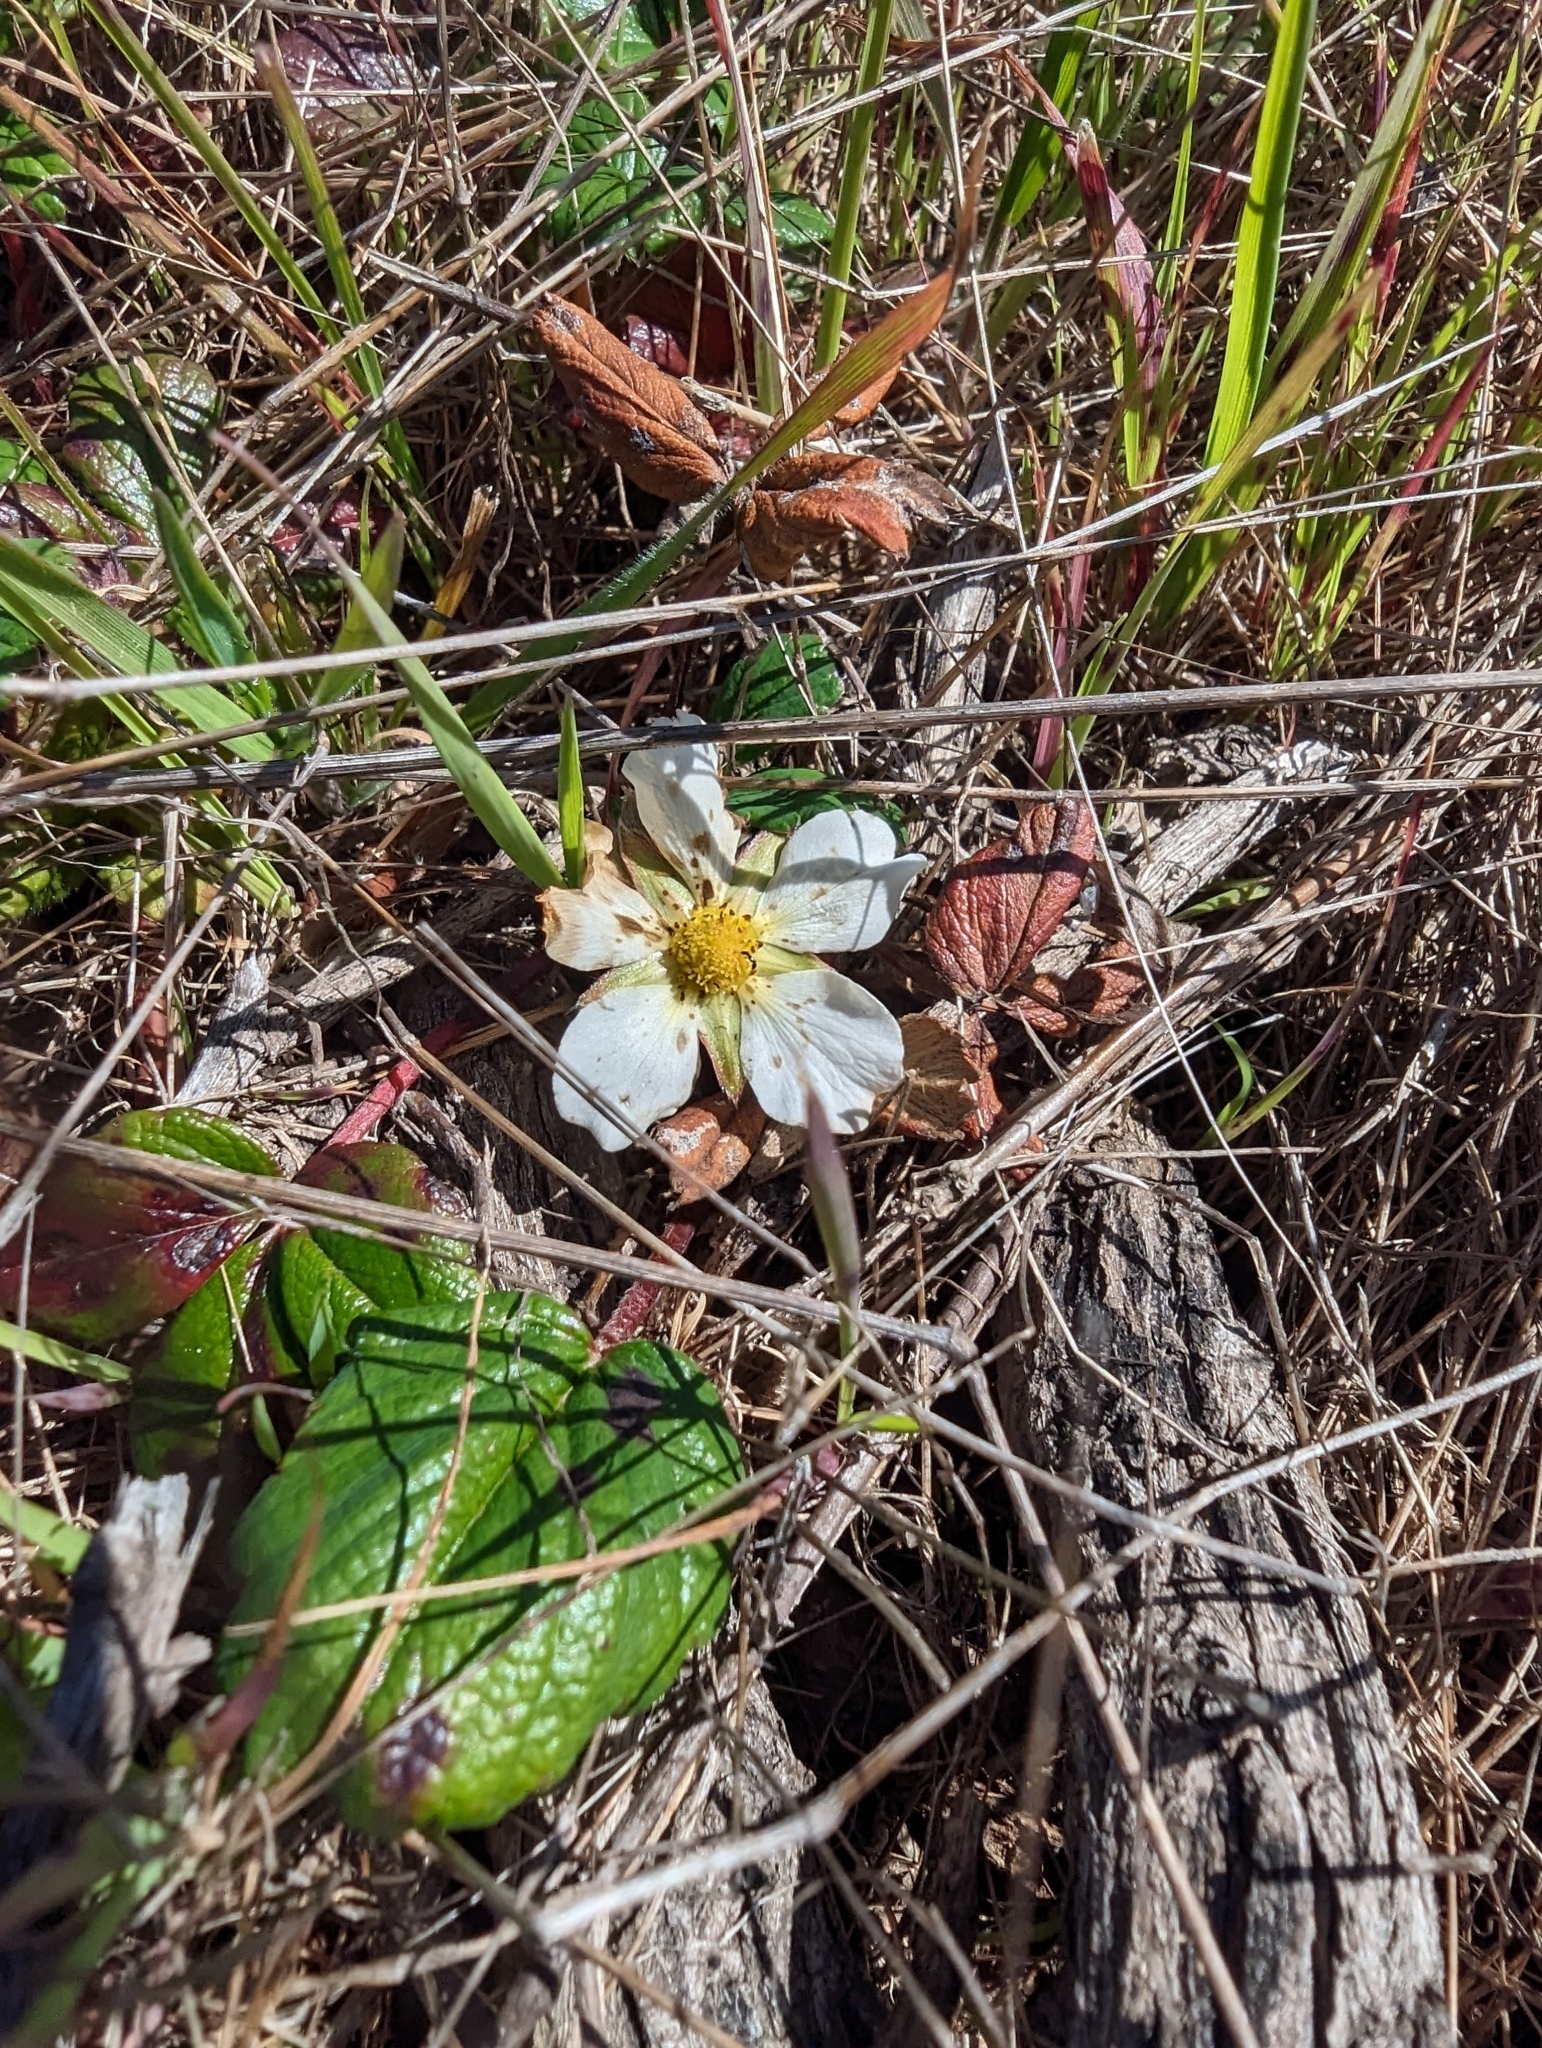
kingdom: Plantae
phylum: Tracheophyta
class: Magnoliopsida
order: Rosales
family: Rosaceae
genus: Fragaria
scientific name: Fragaria chiloensis
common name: Beach strawberry
